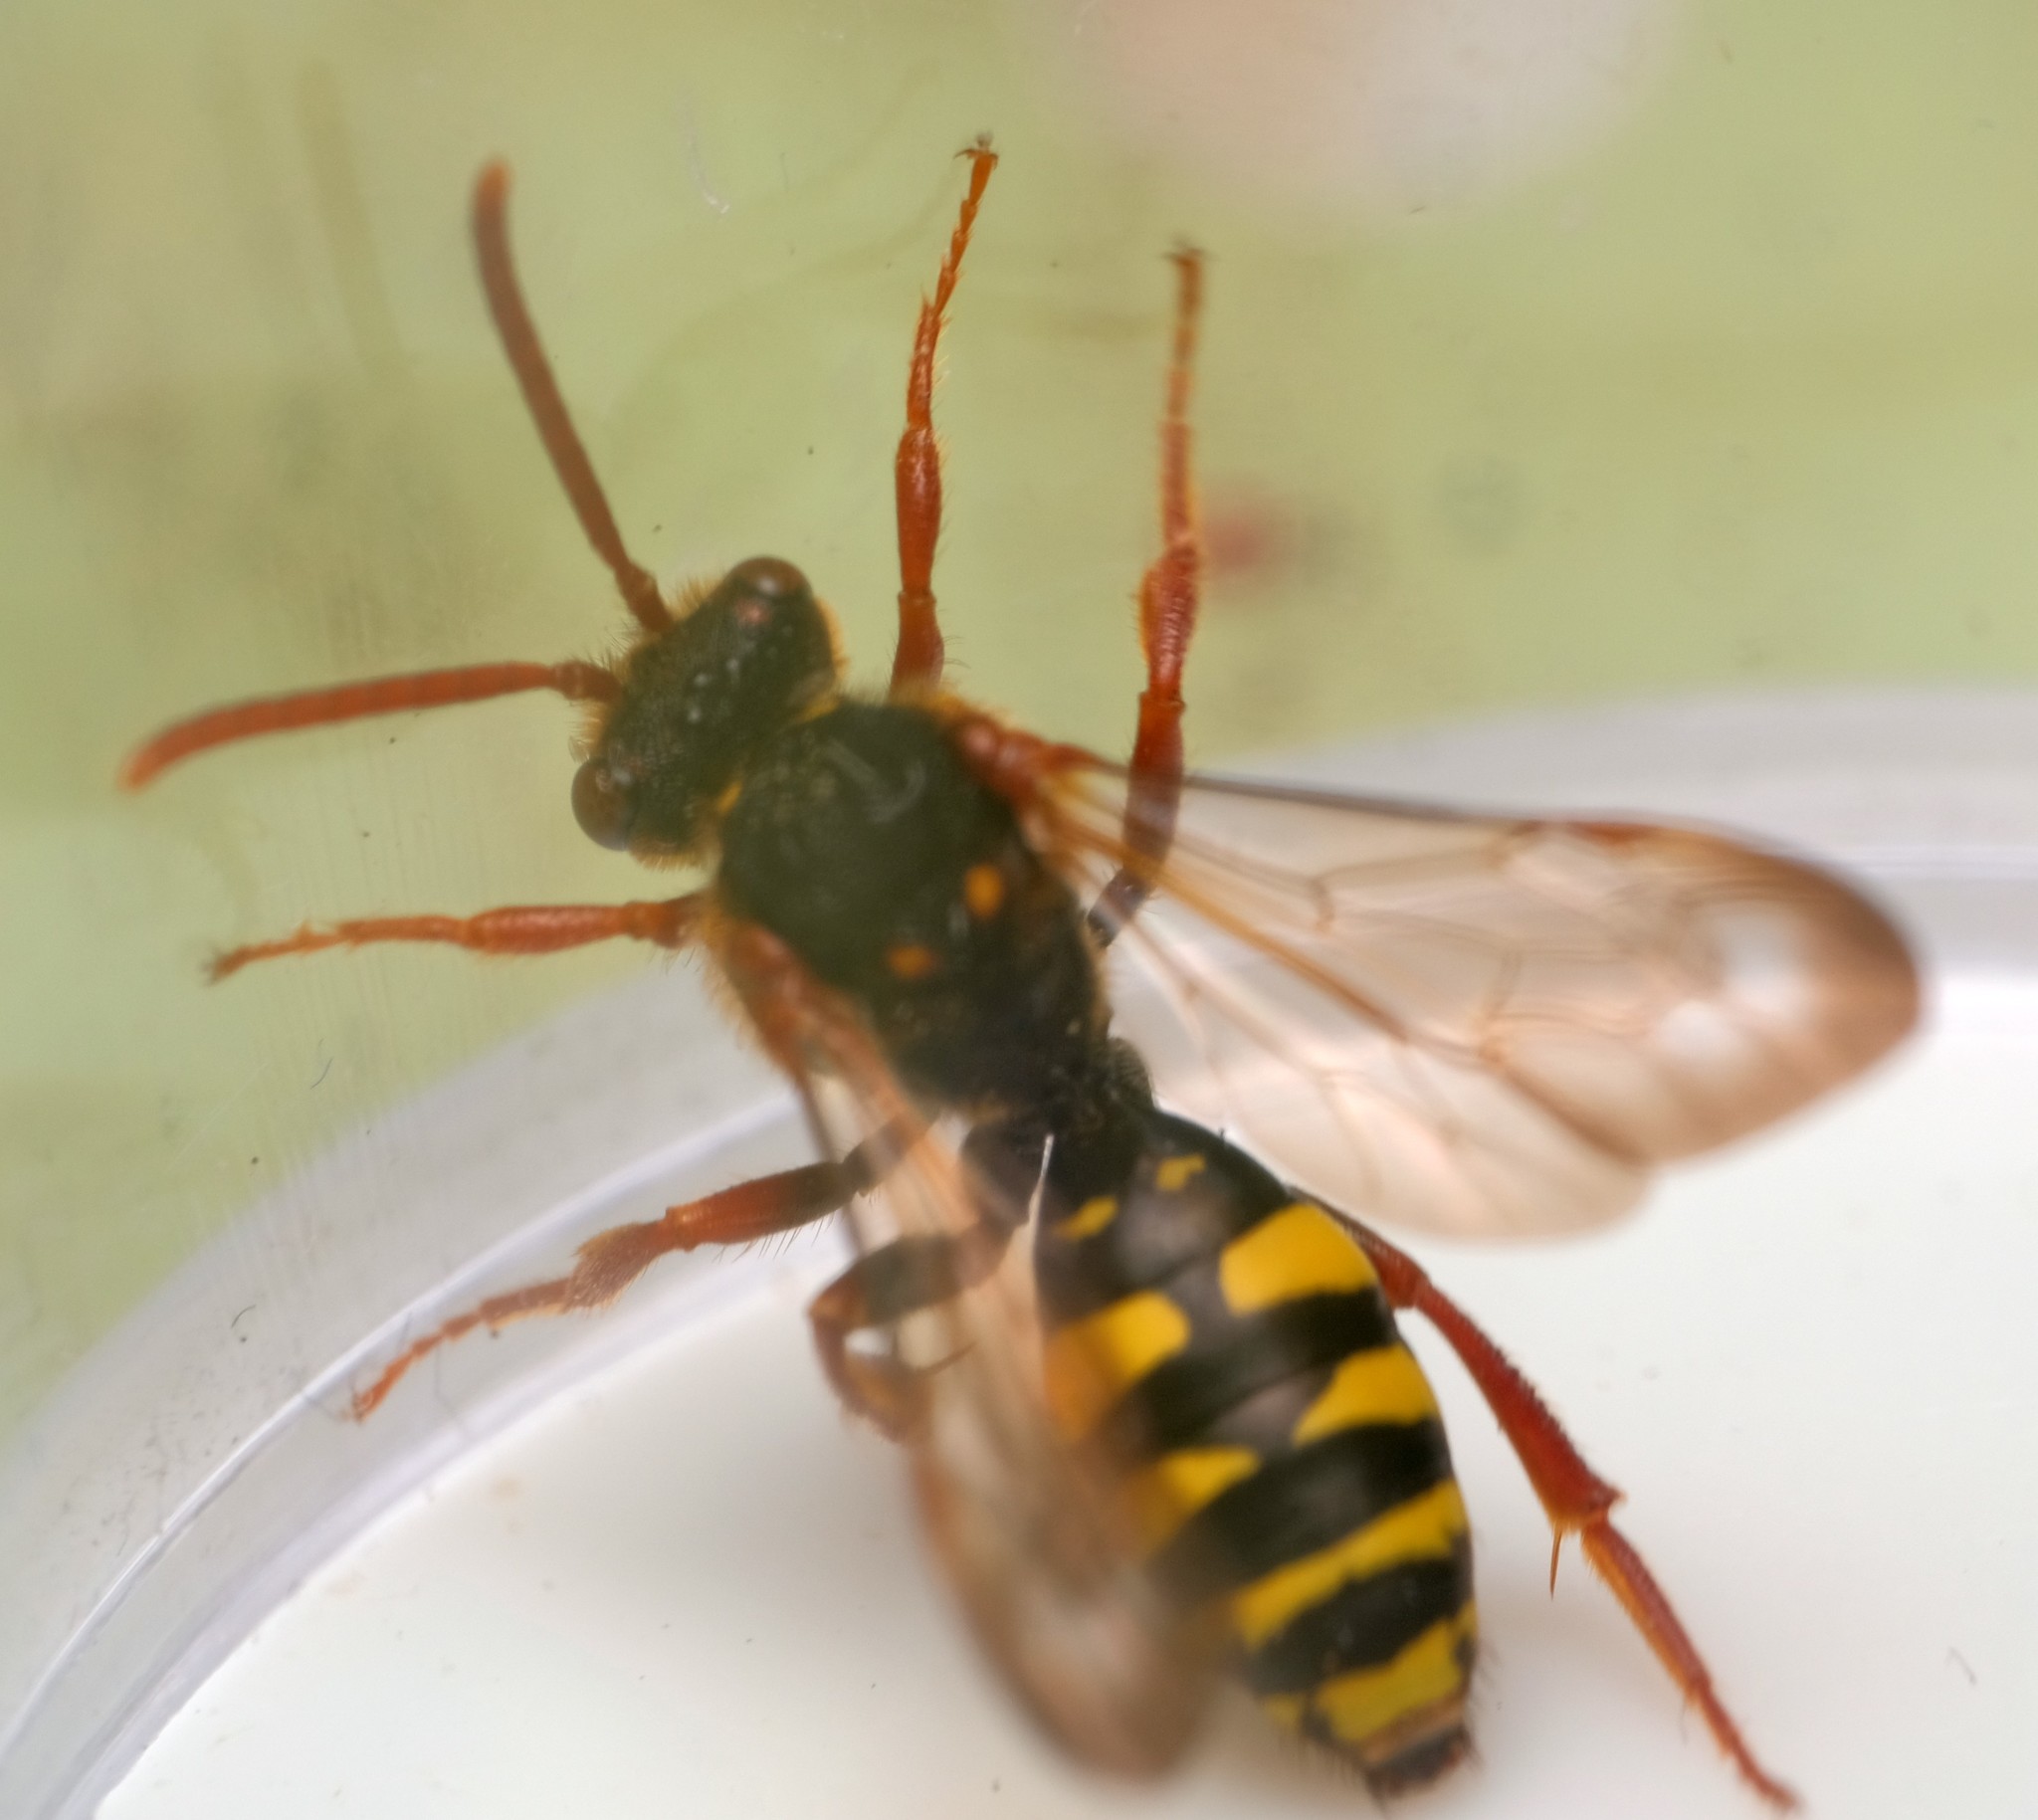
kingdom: Animalia
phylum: Arthropoda
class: Insecta
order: Hymenoptera
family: Apidae
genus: Nomada
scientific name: Nomada marshamella
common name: Marsham's nomad bee
